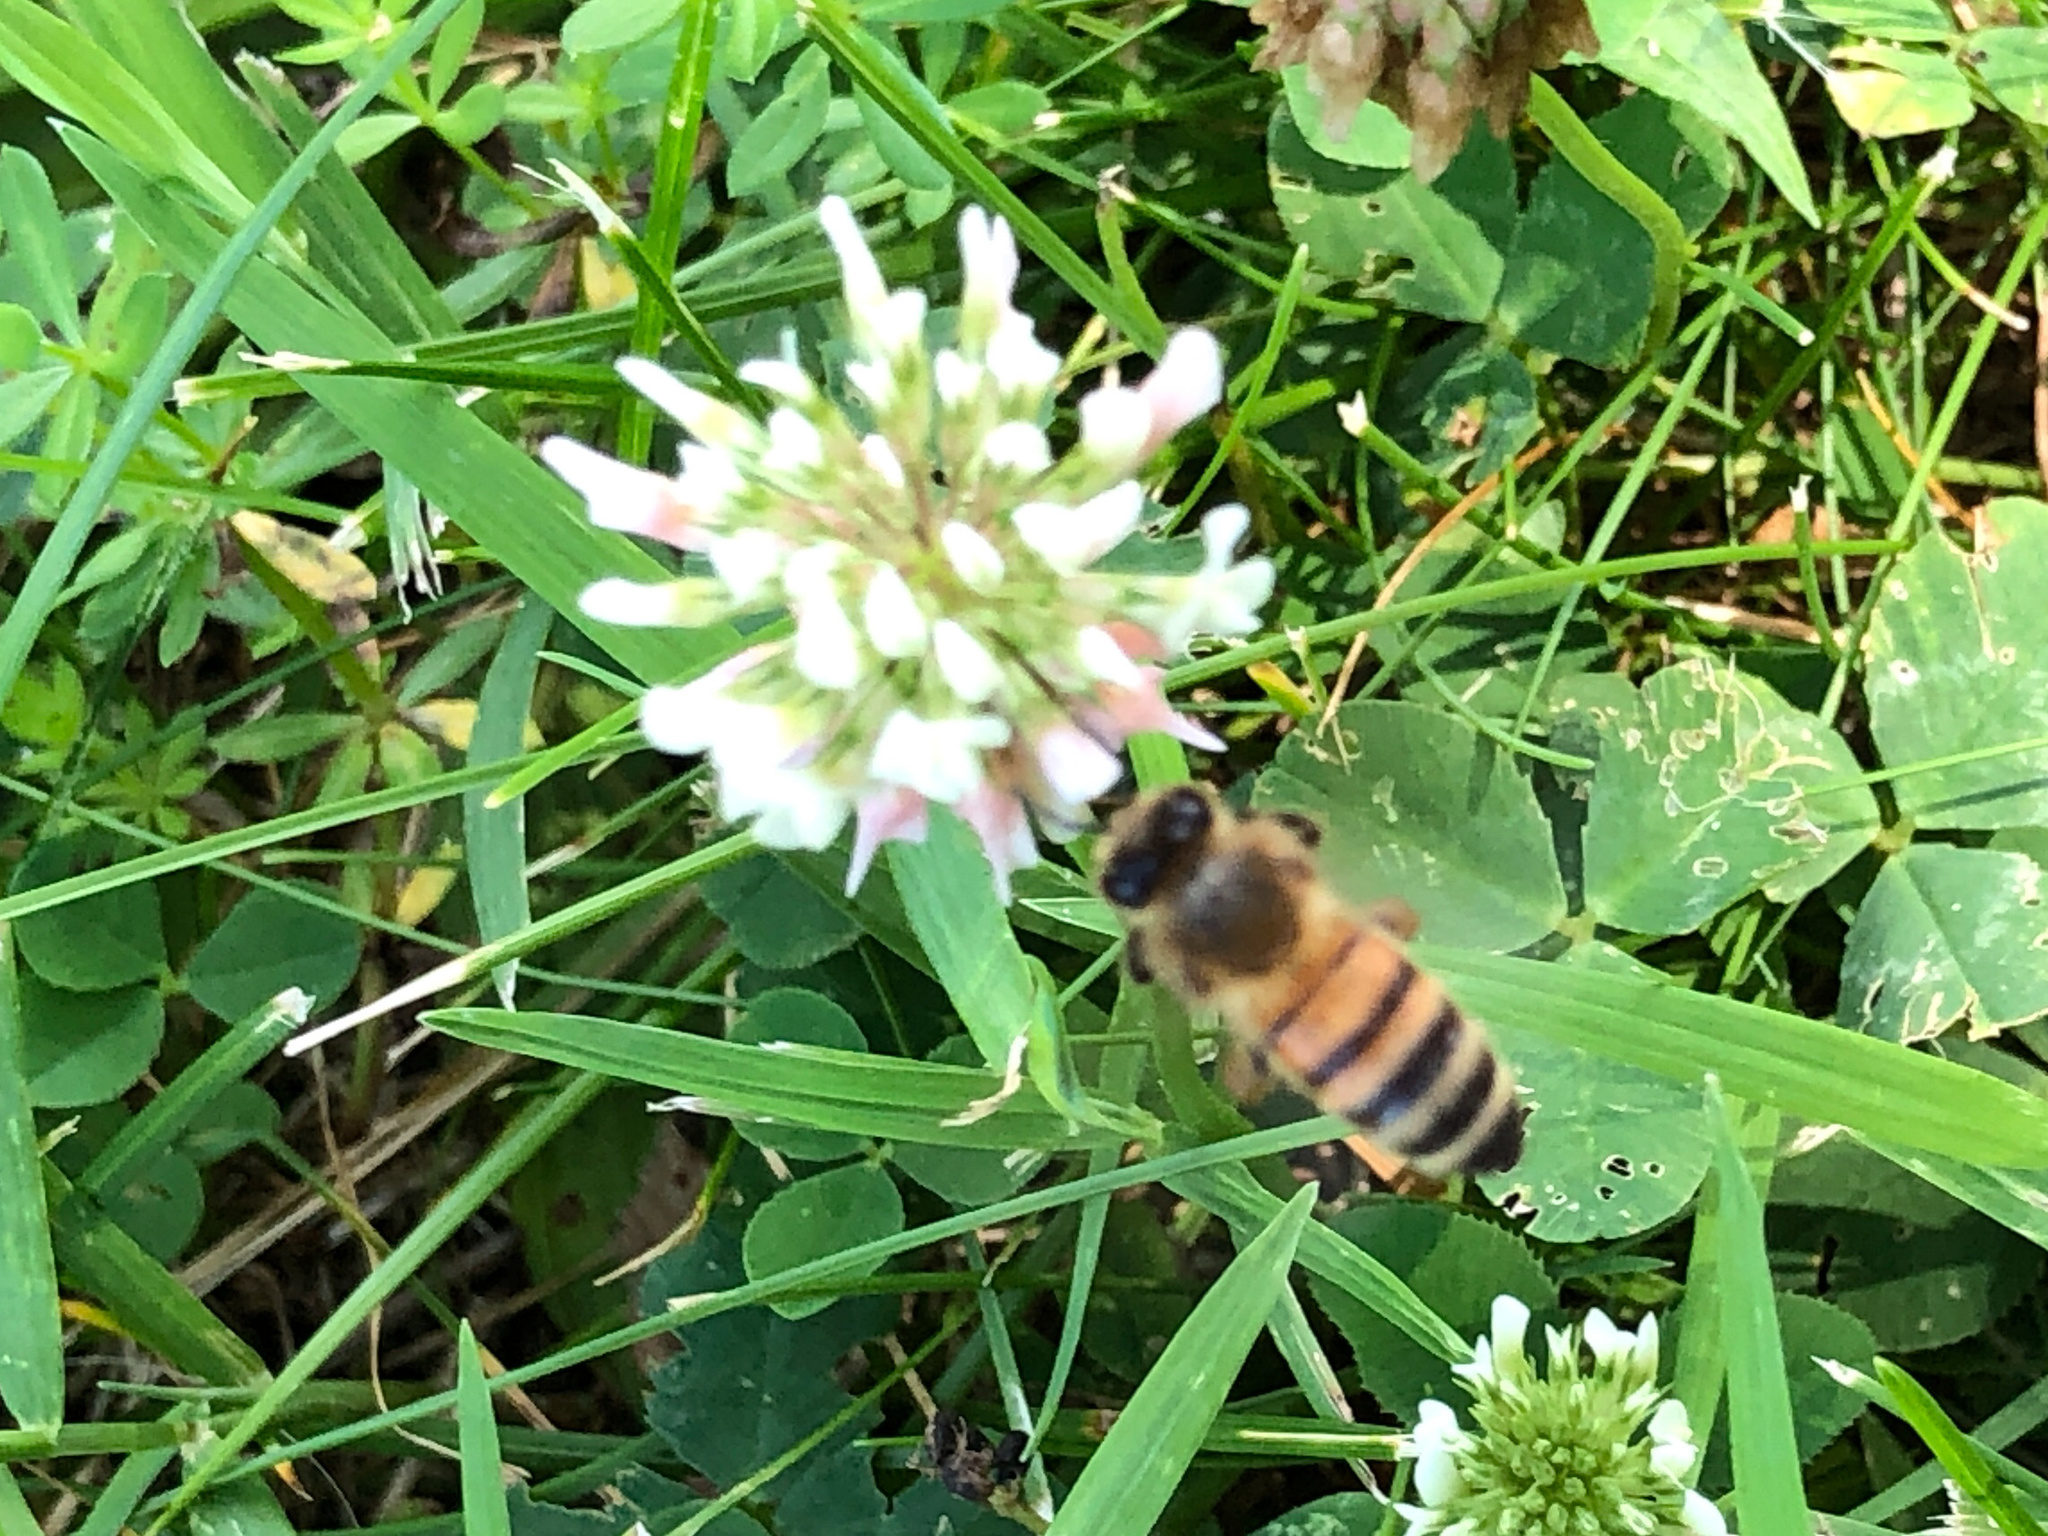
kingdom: Animalia
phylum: Arthropoda
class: Insecta
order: Hymenoptera
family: Apidae
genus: Apis
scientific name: Apis mellifera
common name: Honey bee
